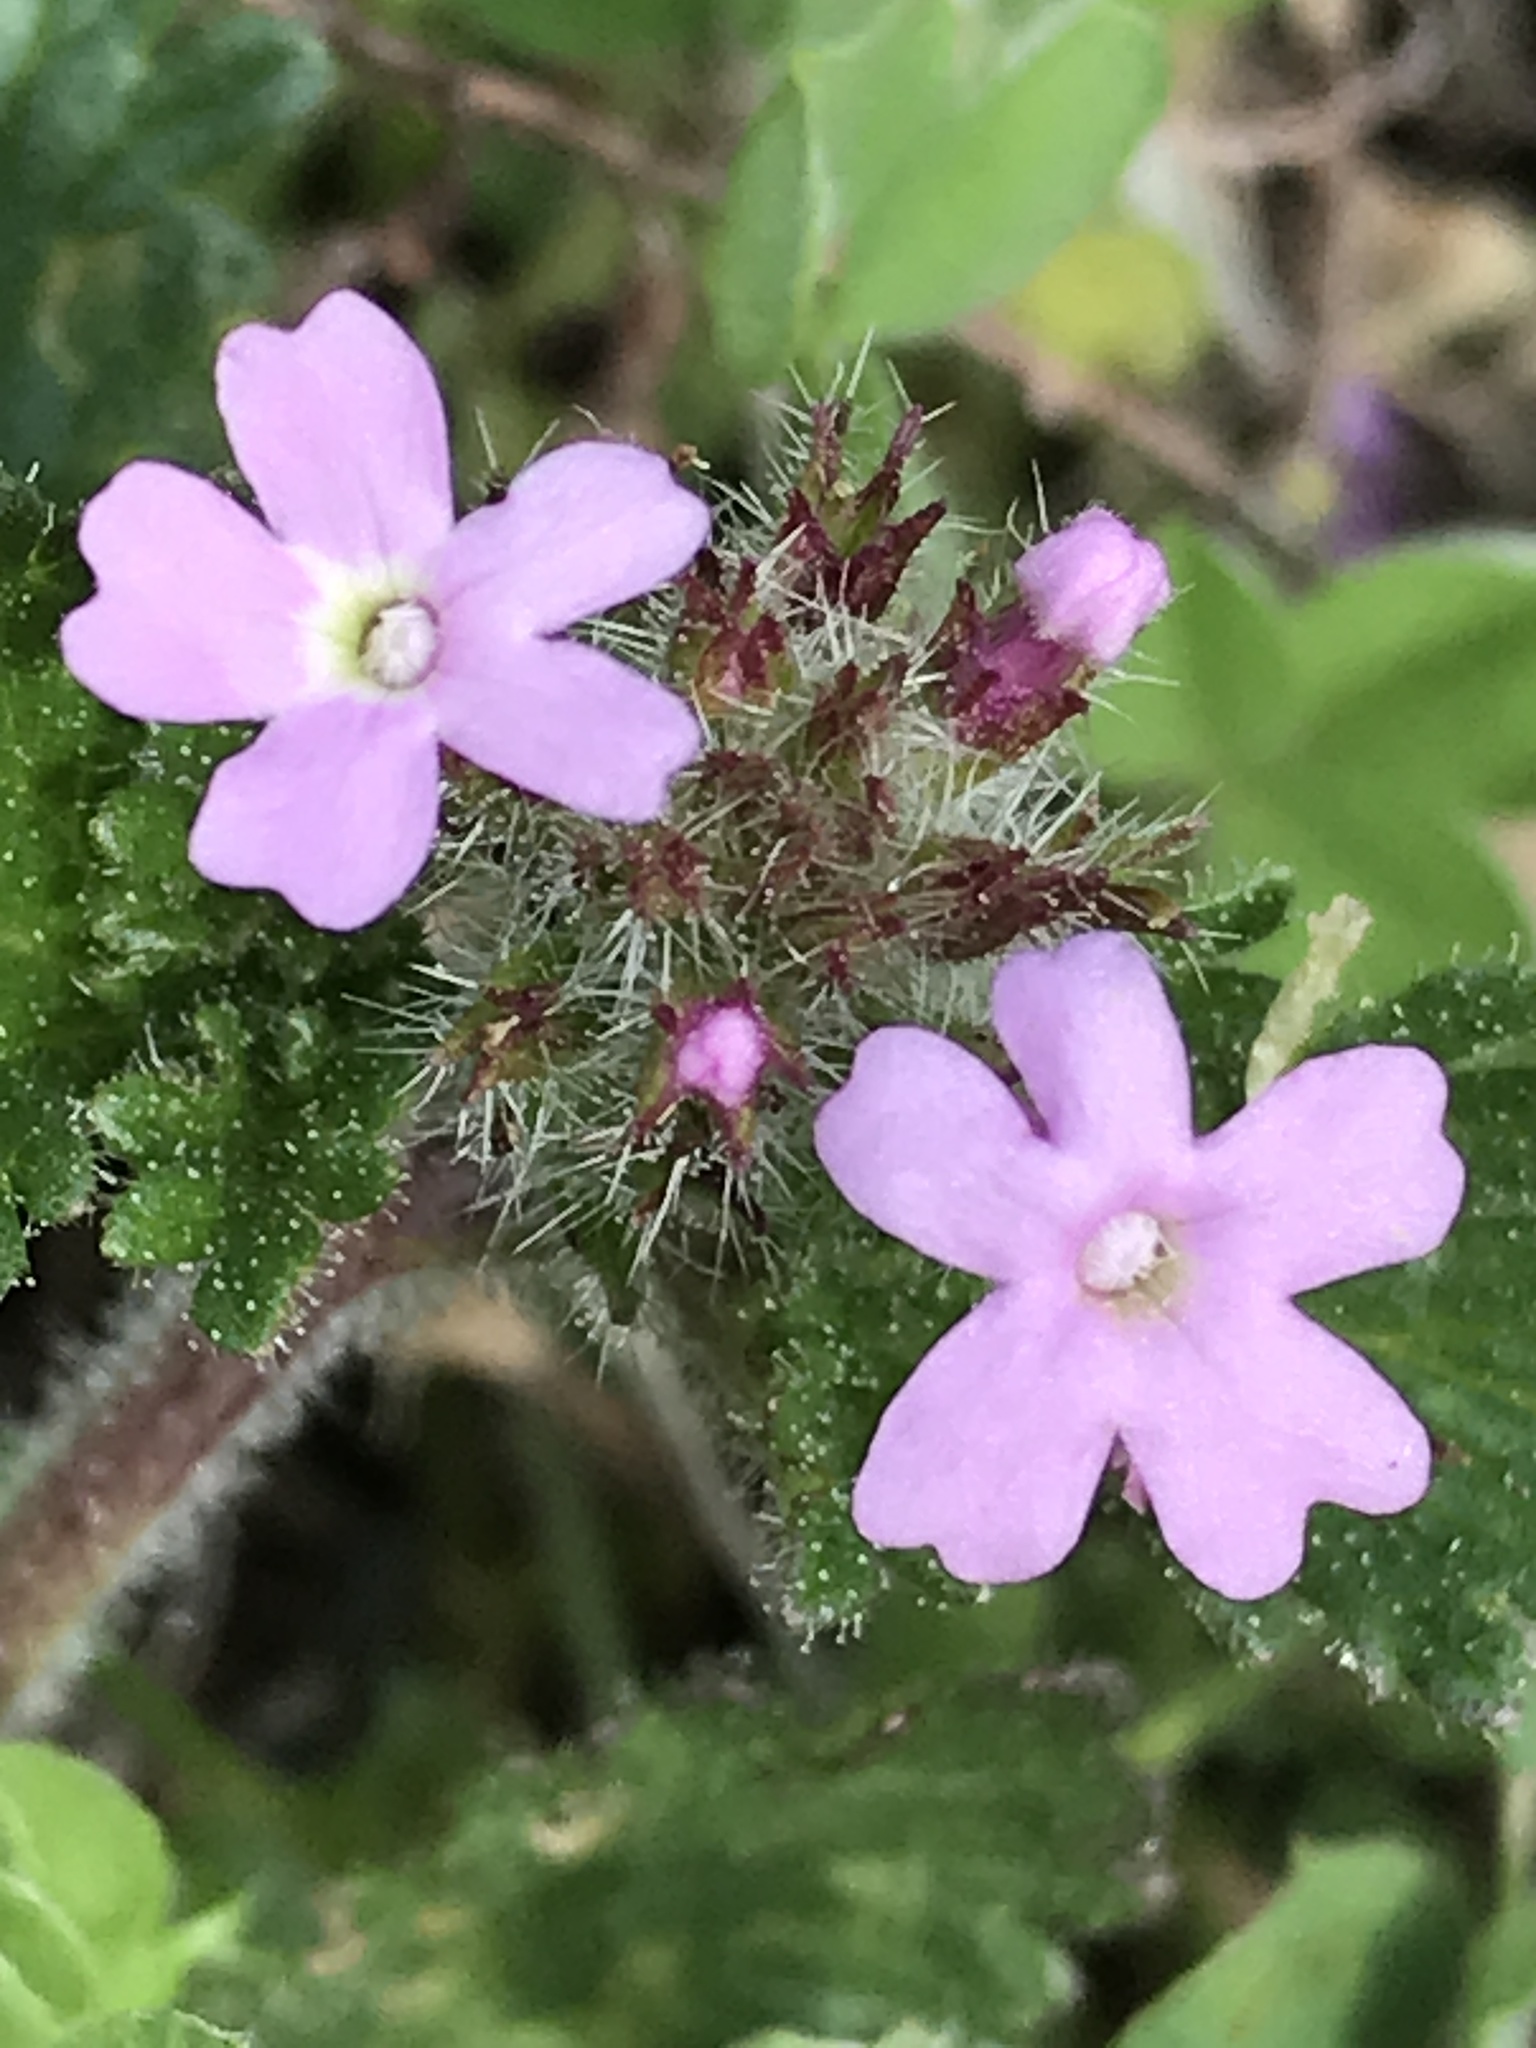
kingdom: Plantae
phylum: Tracheophyta
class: Magnoliopsida
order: Lamiales
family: Verbenaceae
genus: Verbena
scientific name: Verbena pumila
